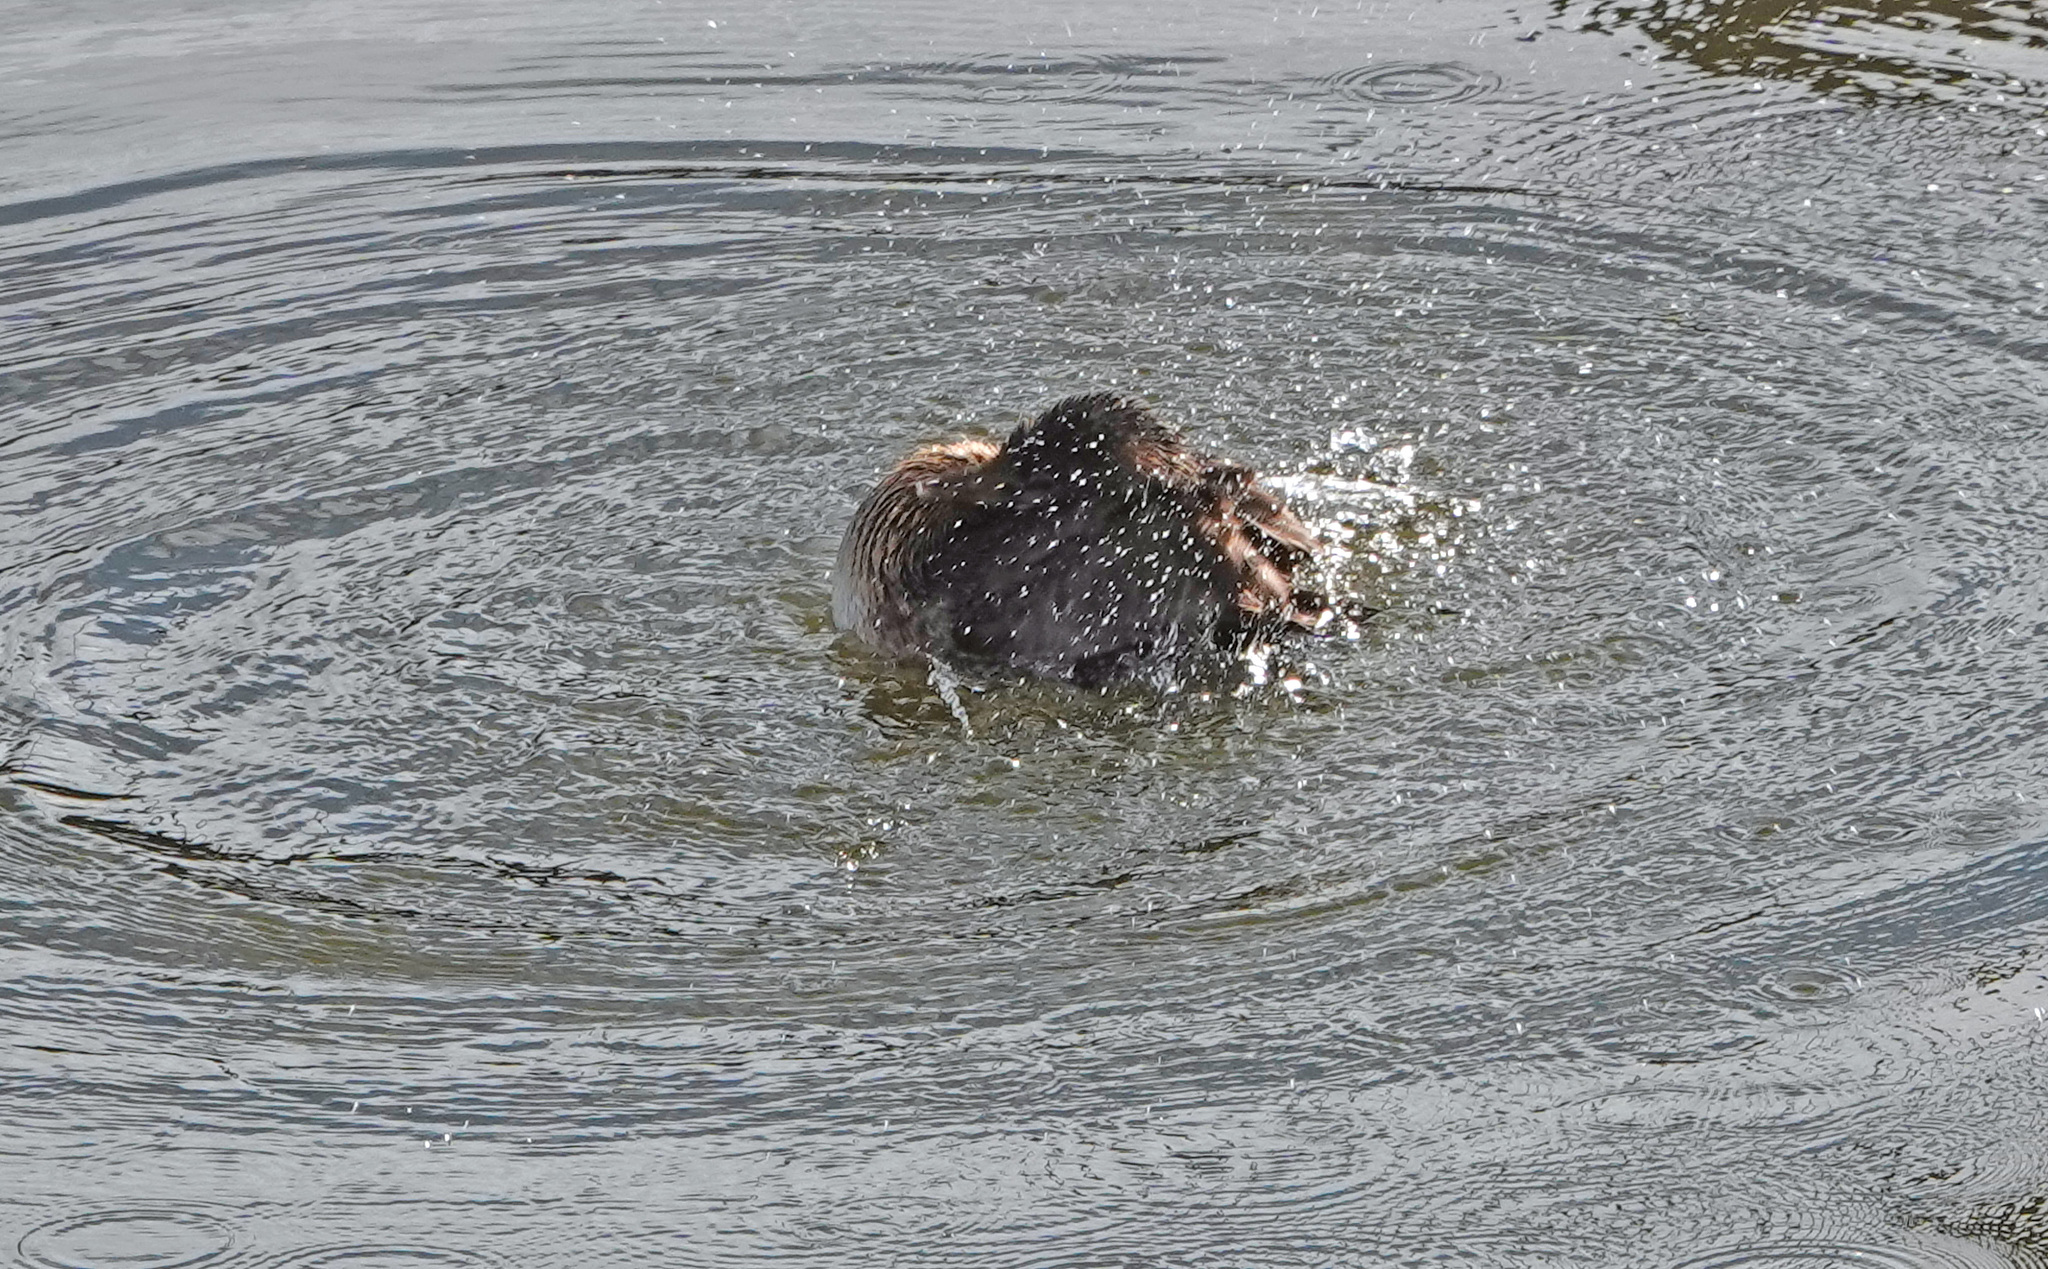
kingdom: Animalia
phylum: Chordata
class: Aves
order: Podicipediformes
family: Podicipedidae
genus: Podilymbus
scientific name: Podilymbus podiceps
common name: Pied-billed grebe
